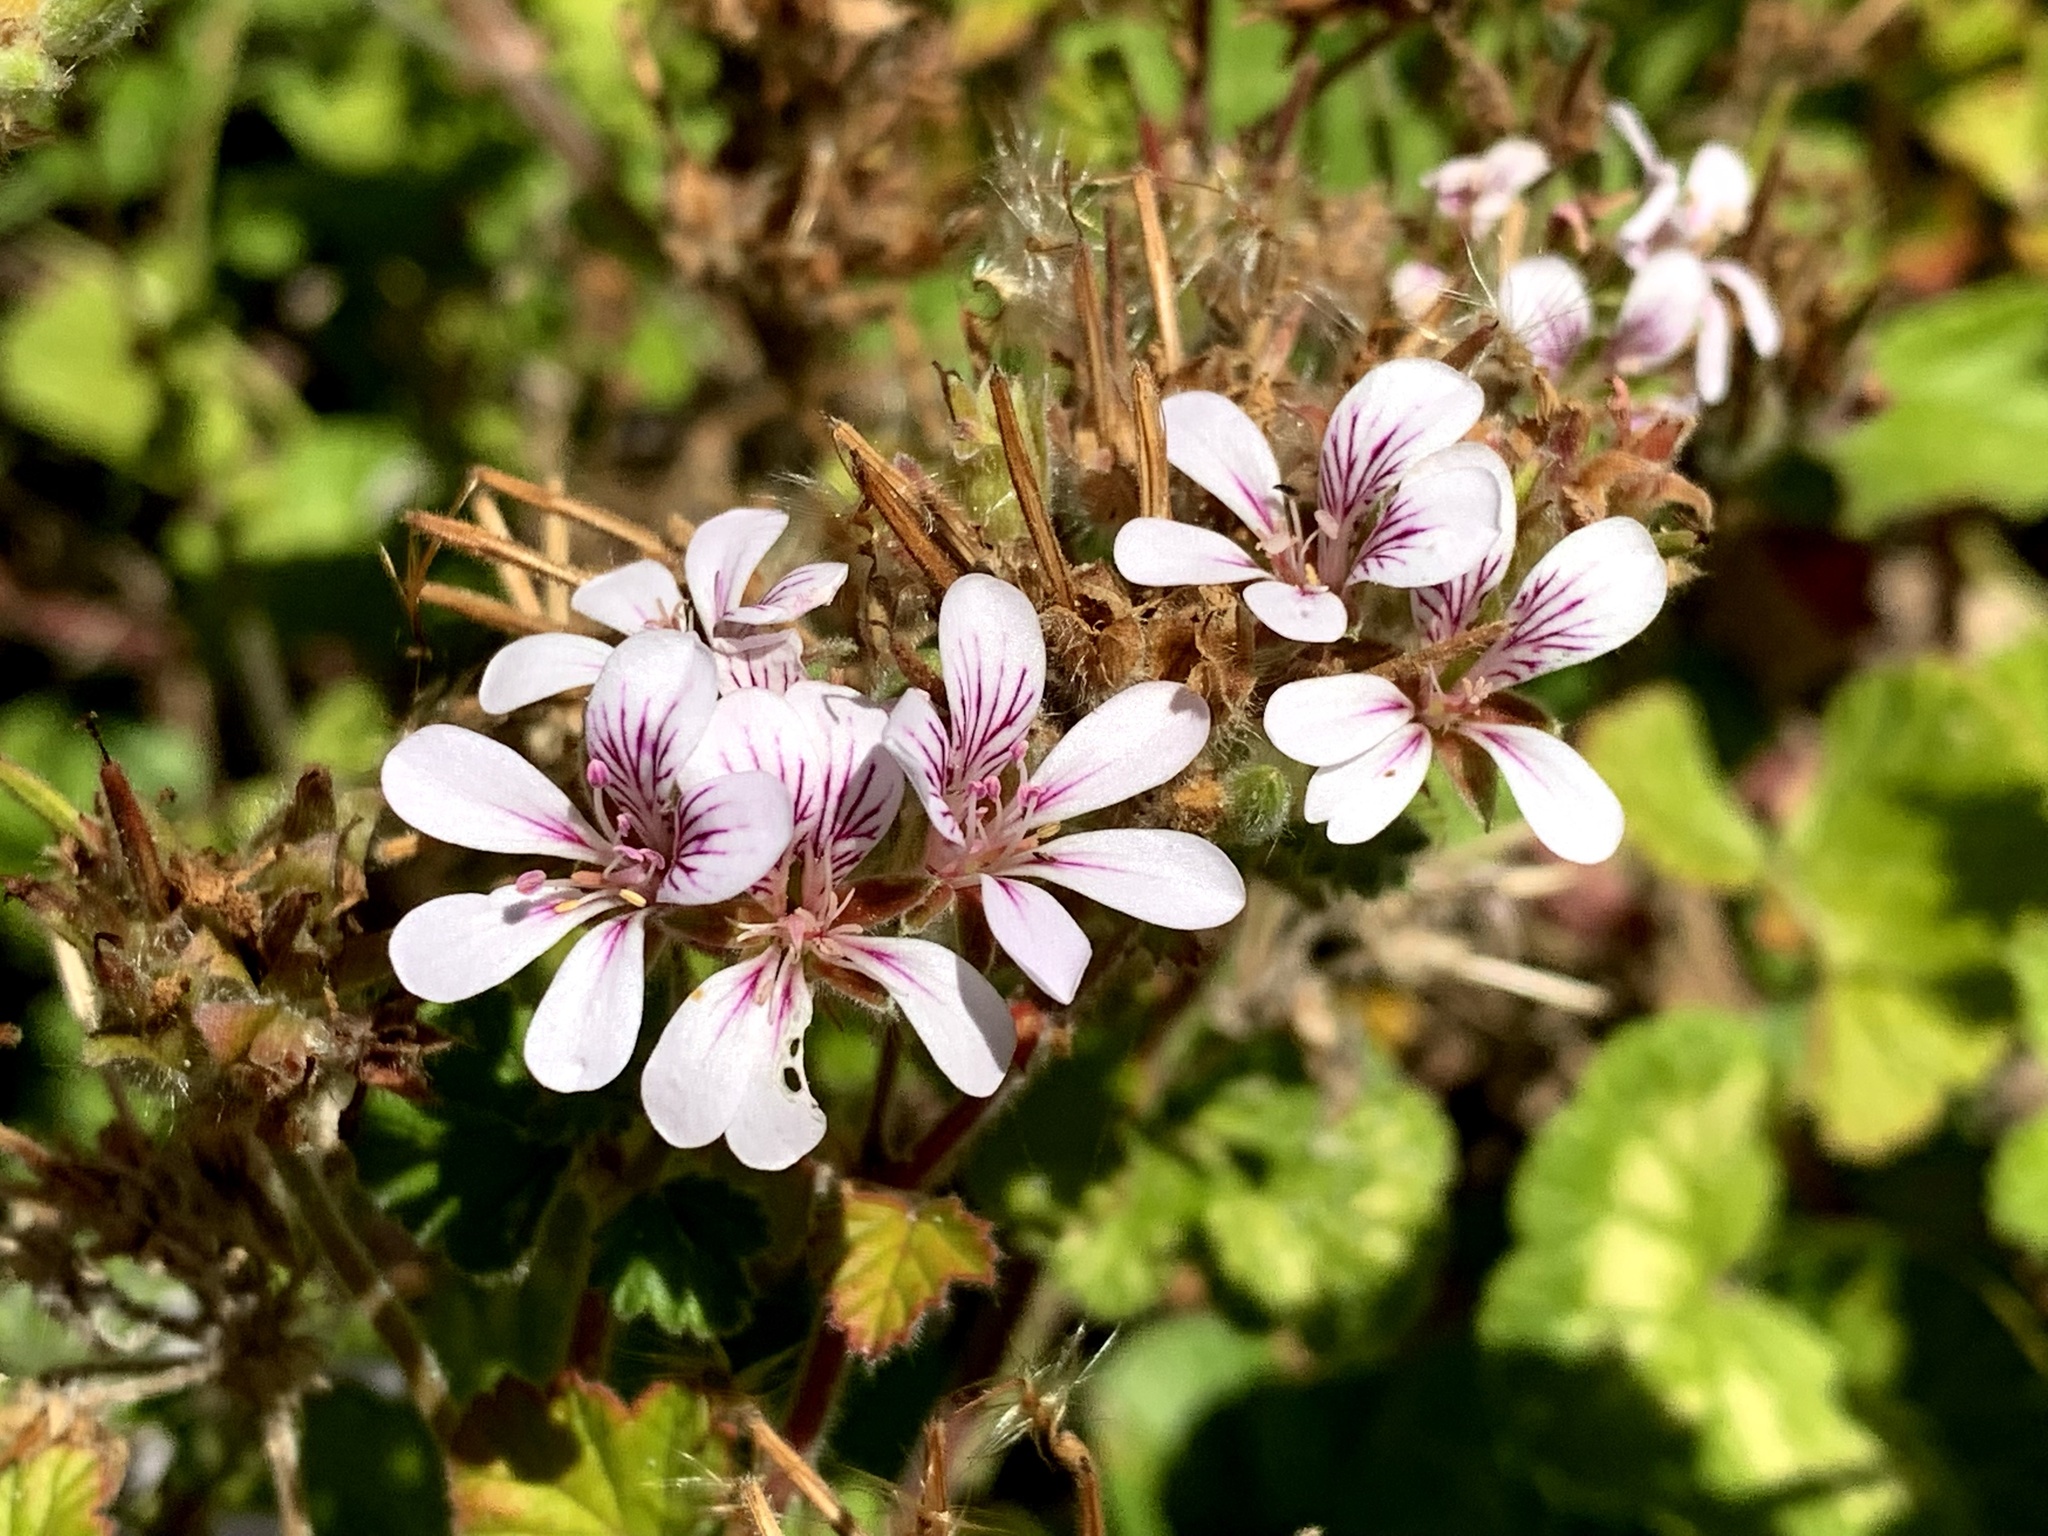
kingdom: Plantae
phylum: Tracheophyta
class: Magnoliopsida
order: Geraniales
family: Geraniaceae
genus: Pelargonium
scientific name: Pelargonium australe
